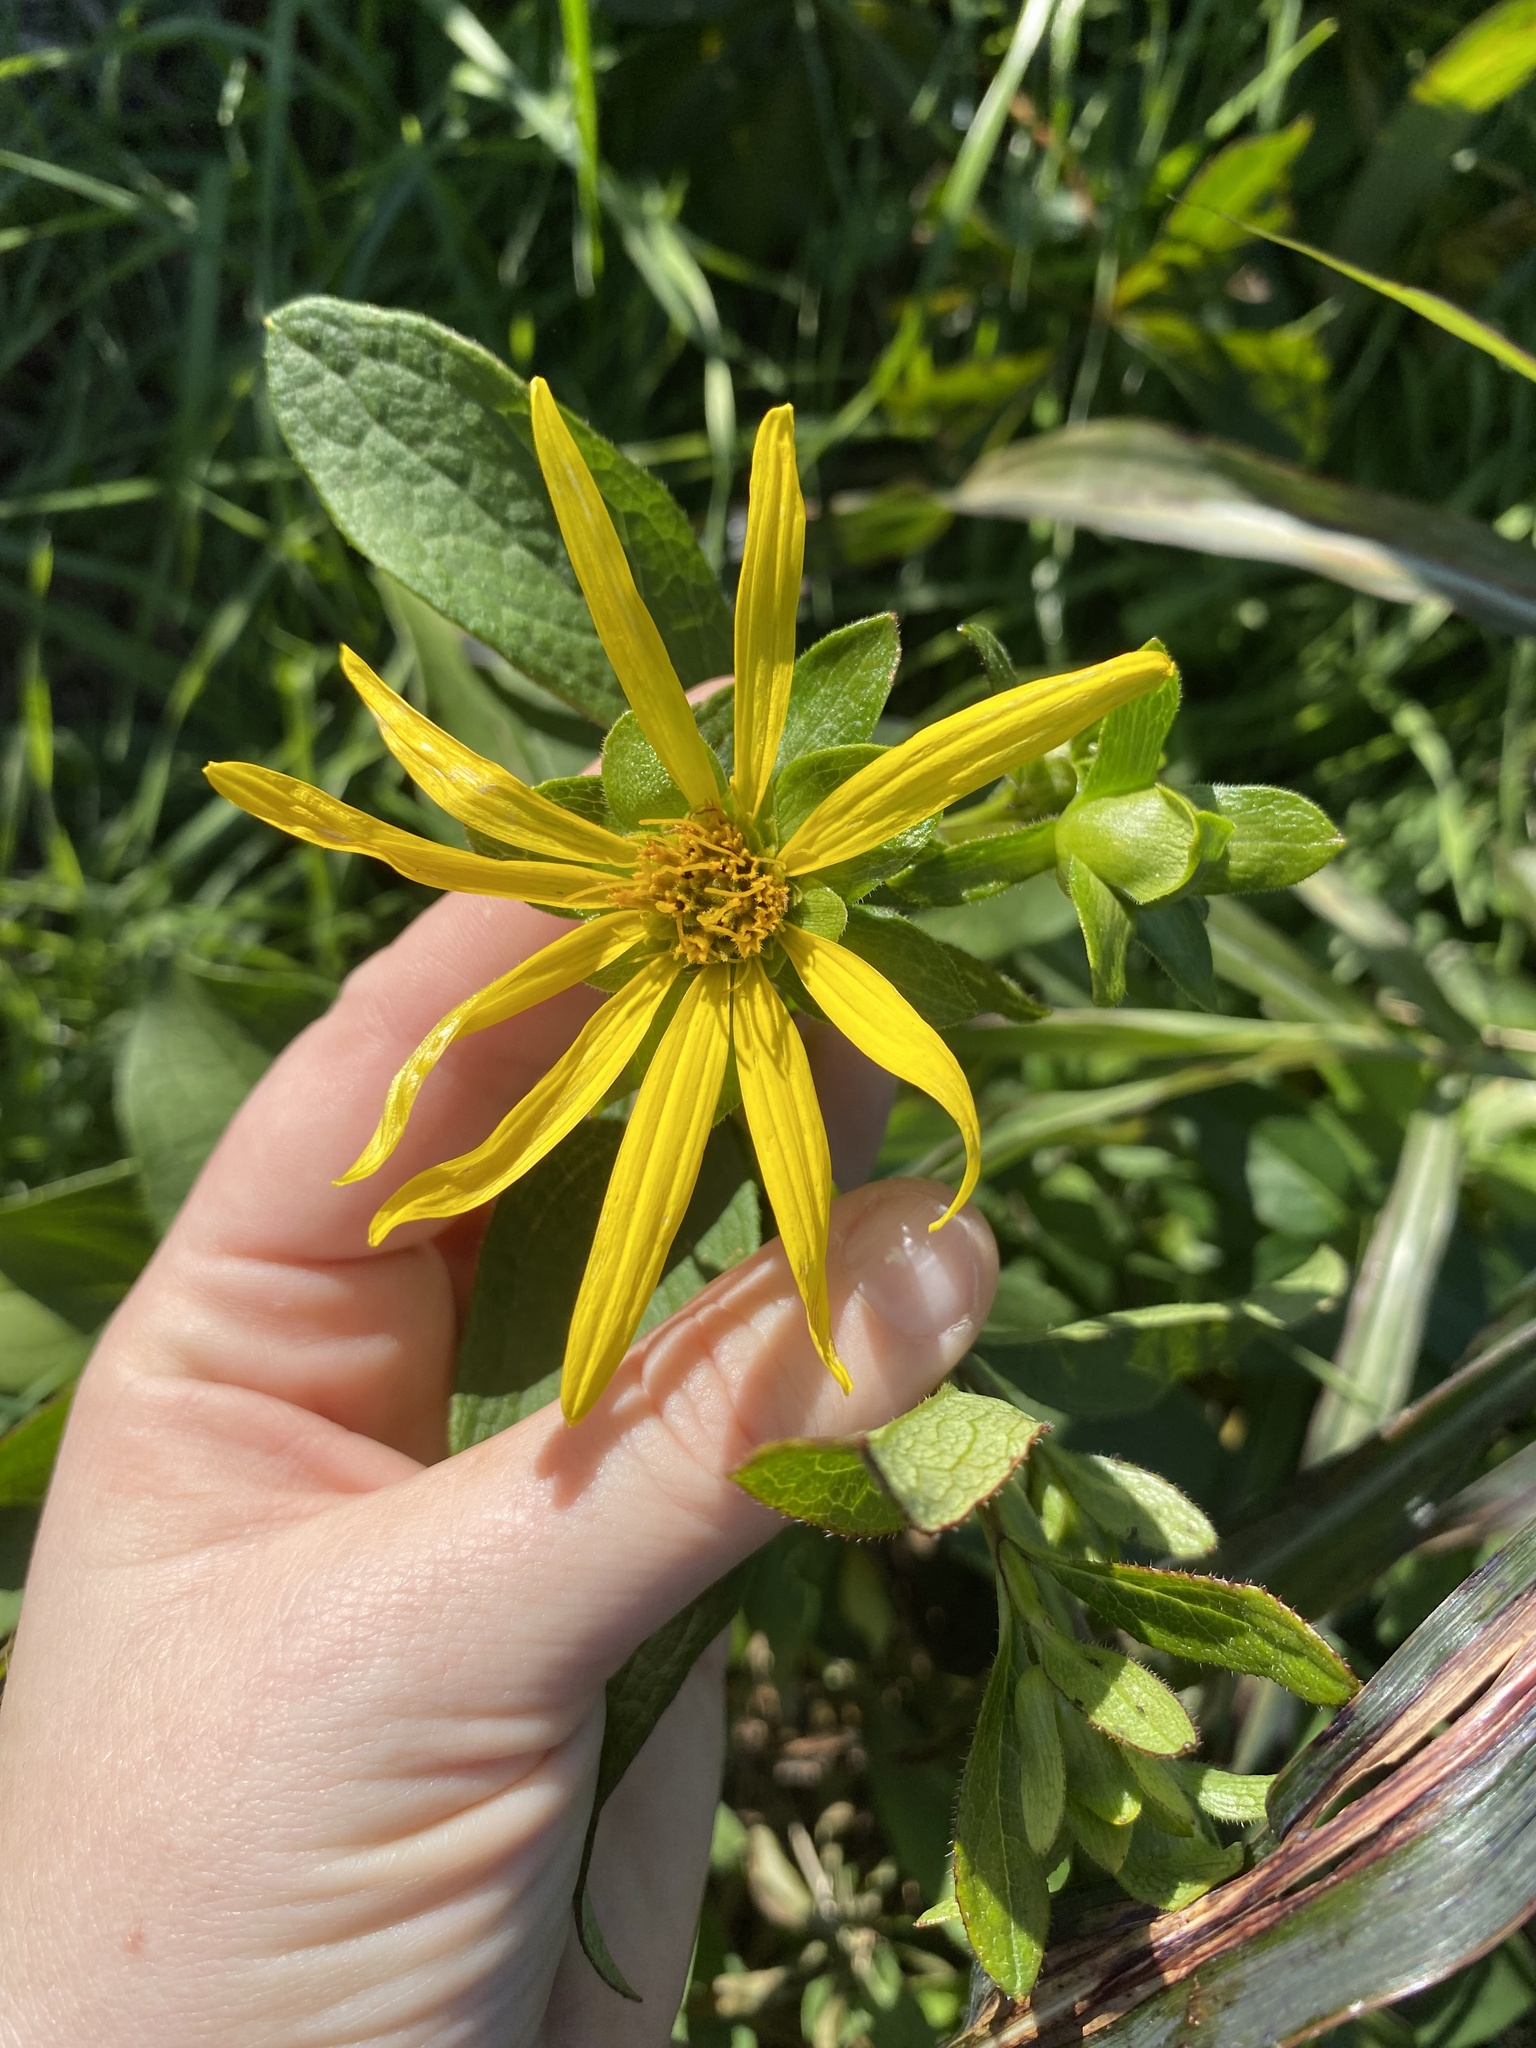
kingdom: Plantae
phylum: Tracheophyta
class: Magnoliopsida
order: Asterales
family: Asteraceae
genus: Silphium
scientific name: Silphium asteriscus
